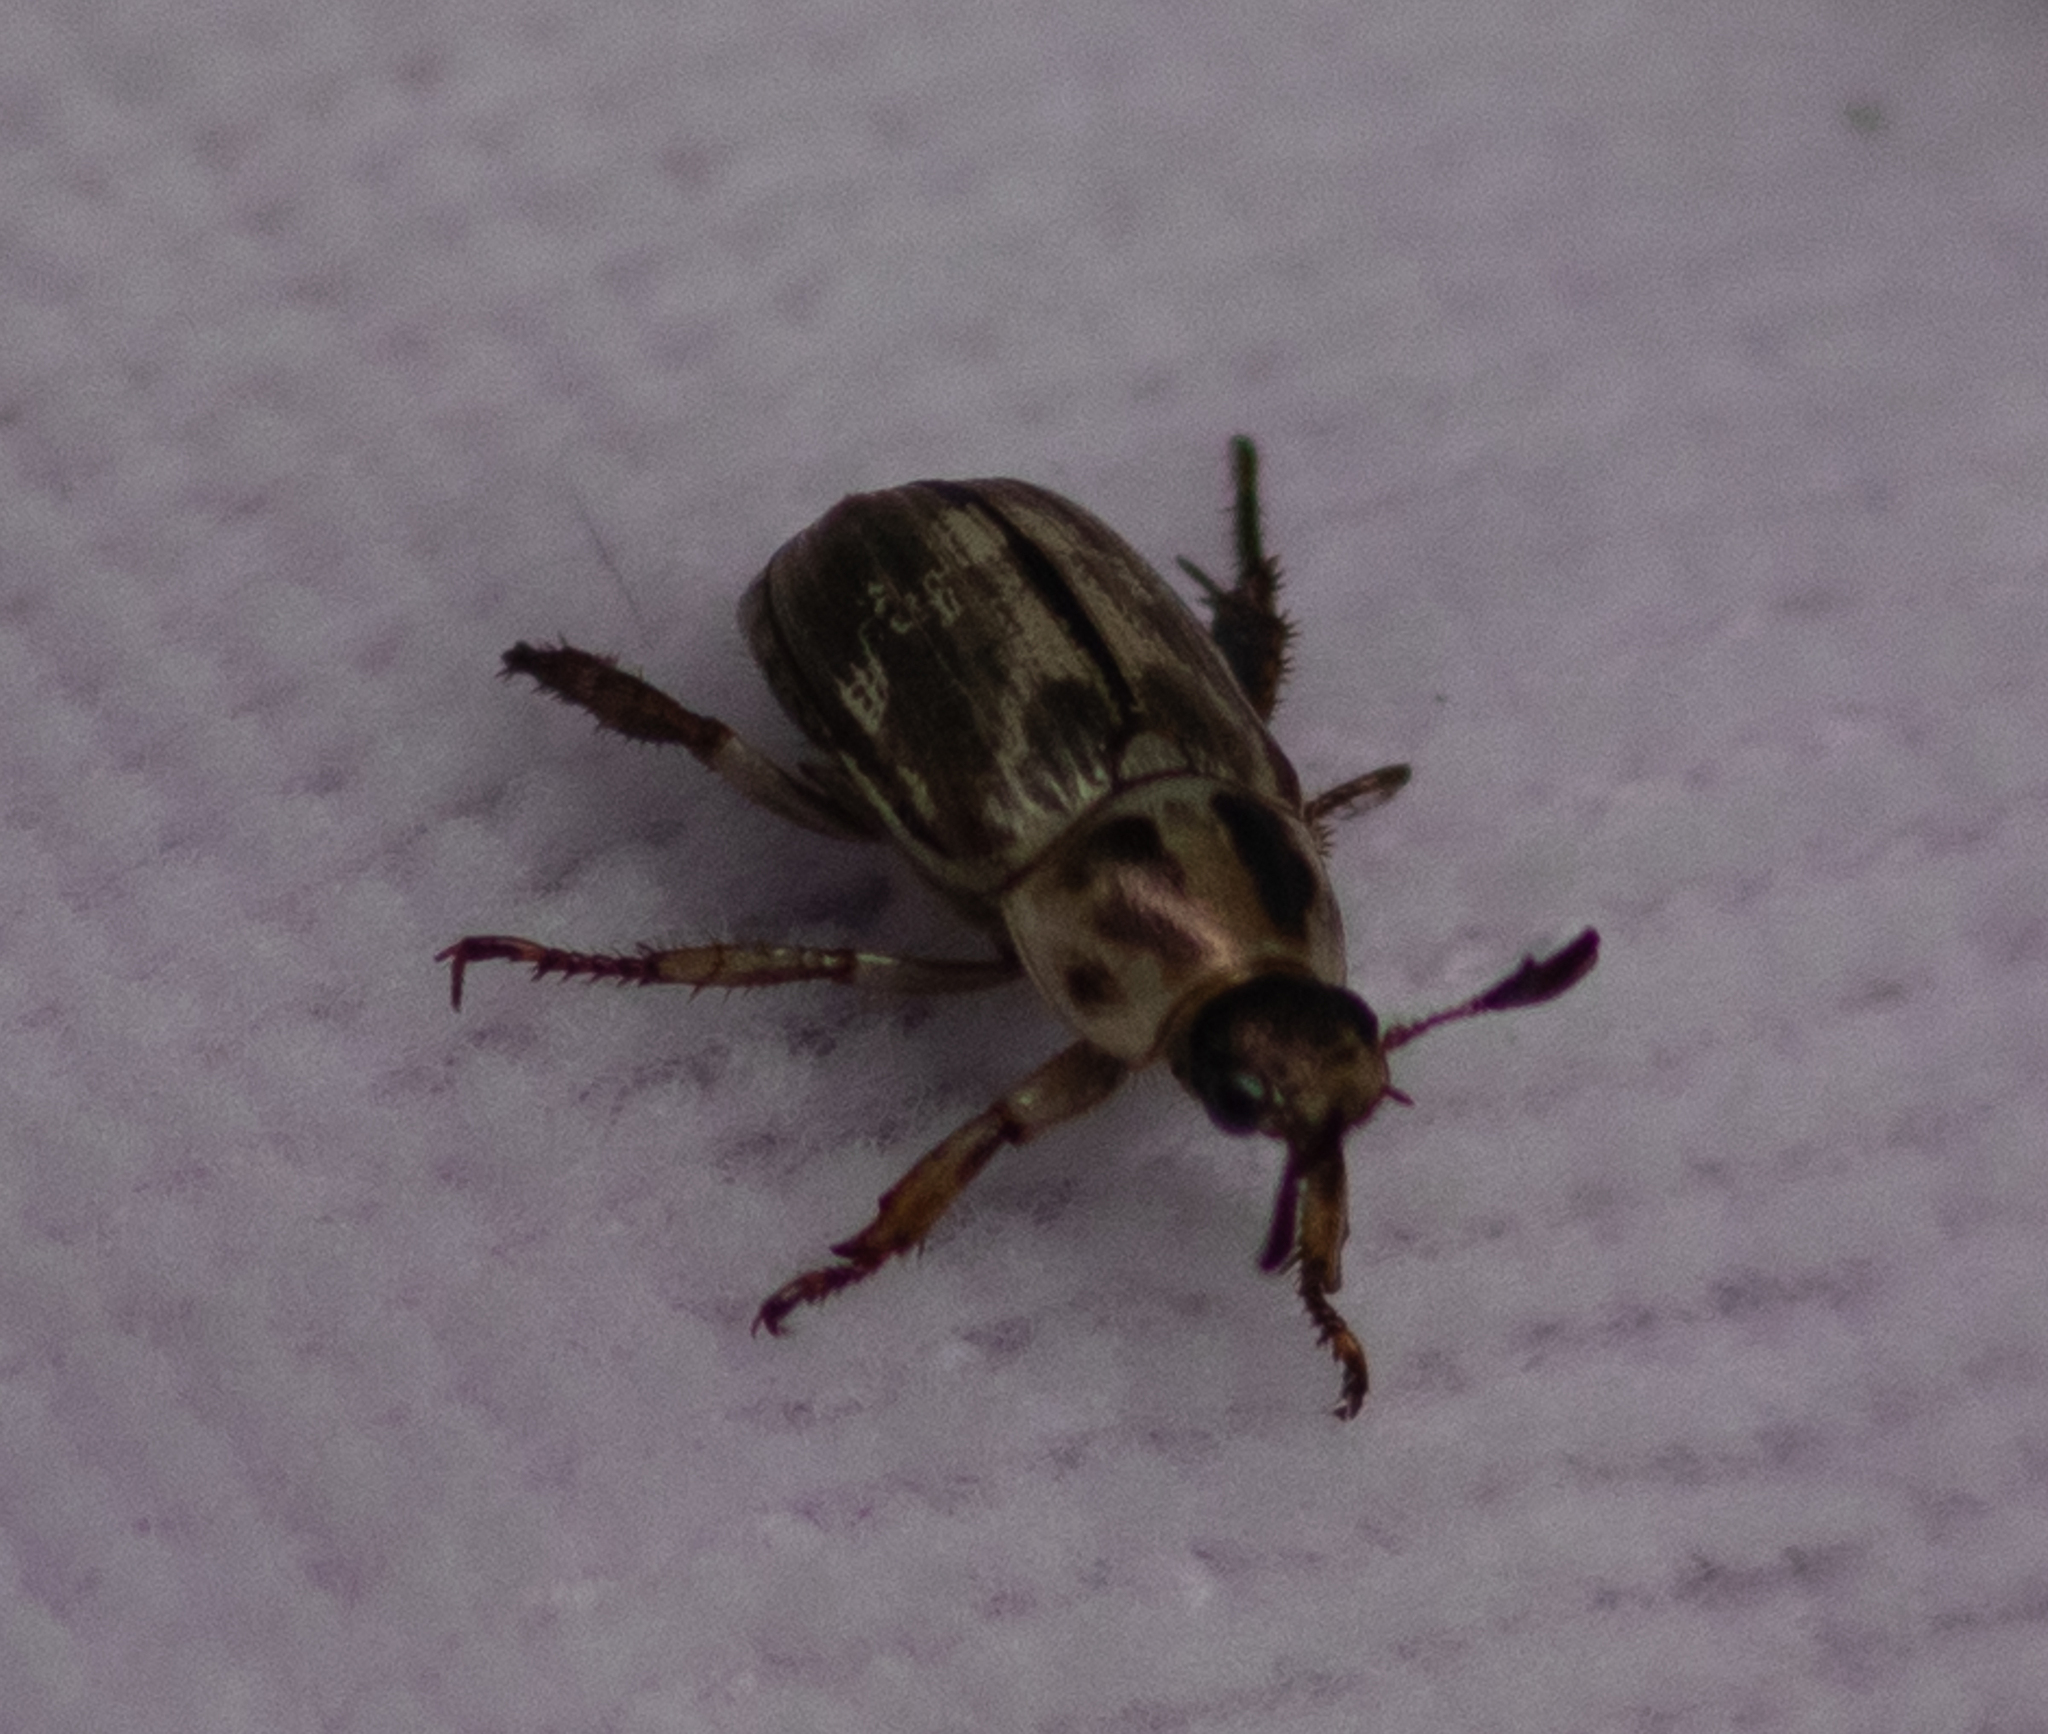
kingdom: Animalia
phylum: Arthropoda
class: Insecta
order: Coleoptera
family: Scarabaeidae
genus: Exomala
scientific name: Exomala orientalis
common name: Oriental beetle
